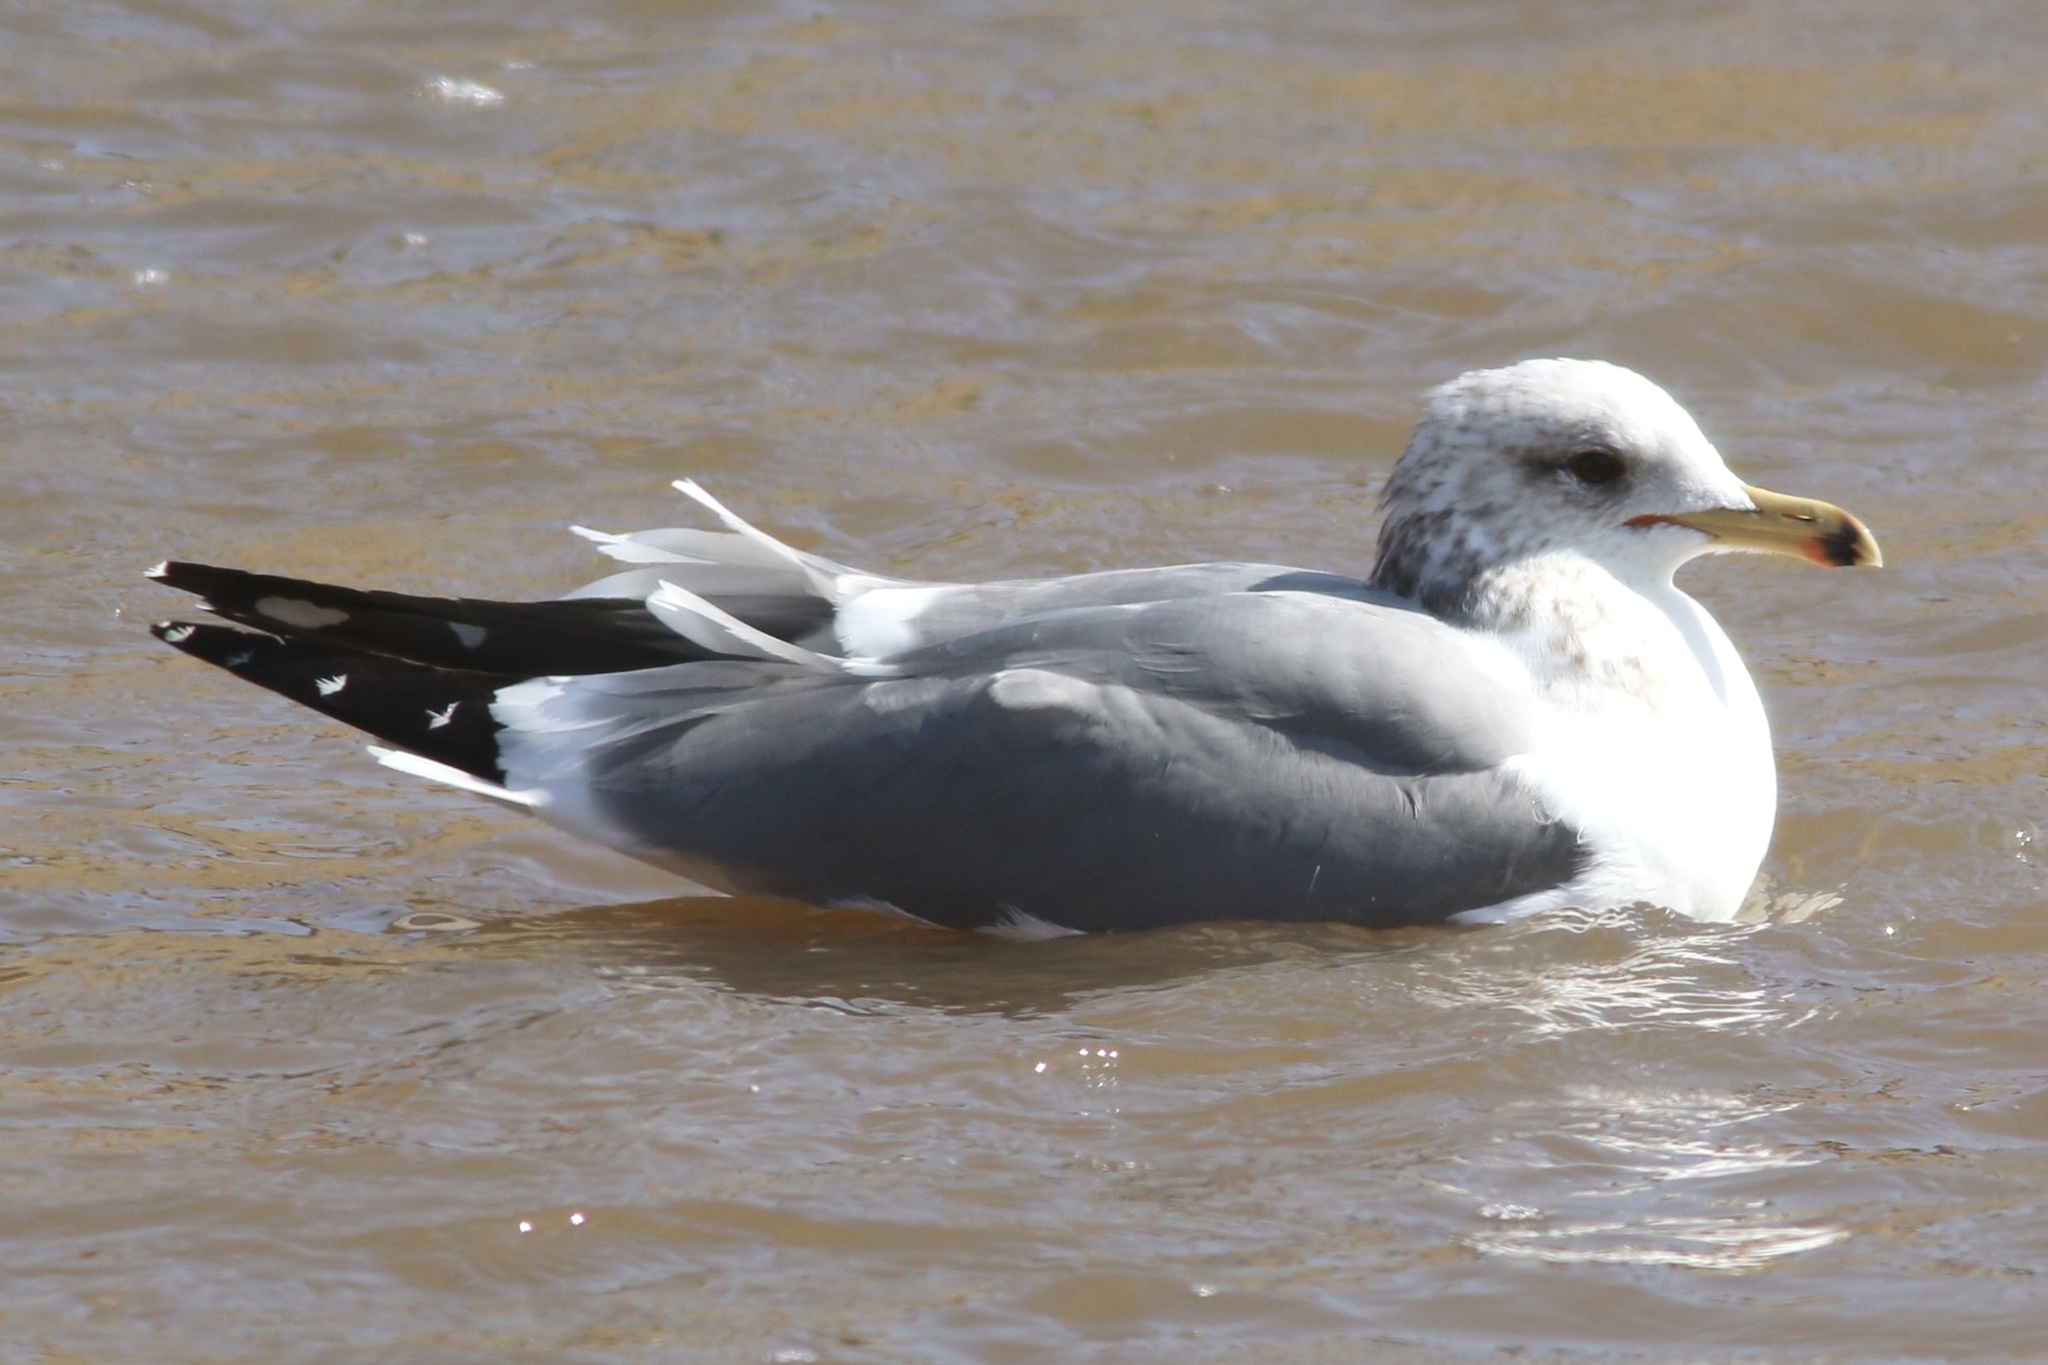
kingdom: Animalia
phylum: Chordata
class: Aves
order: Charadriiformes
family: Laridae
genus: Larus
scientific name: Larus californicus
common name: California gull
